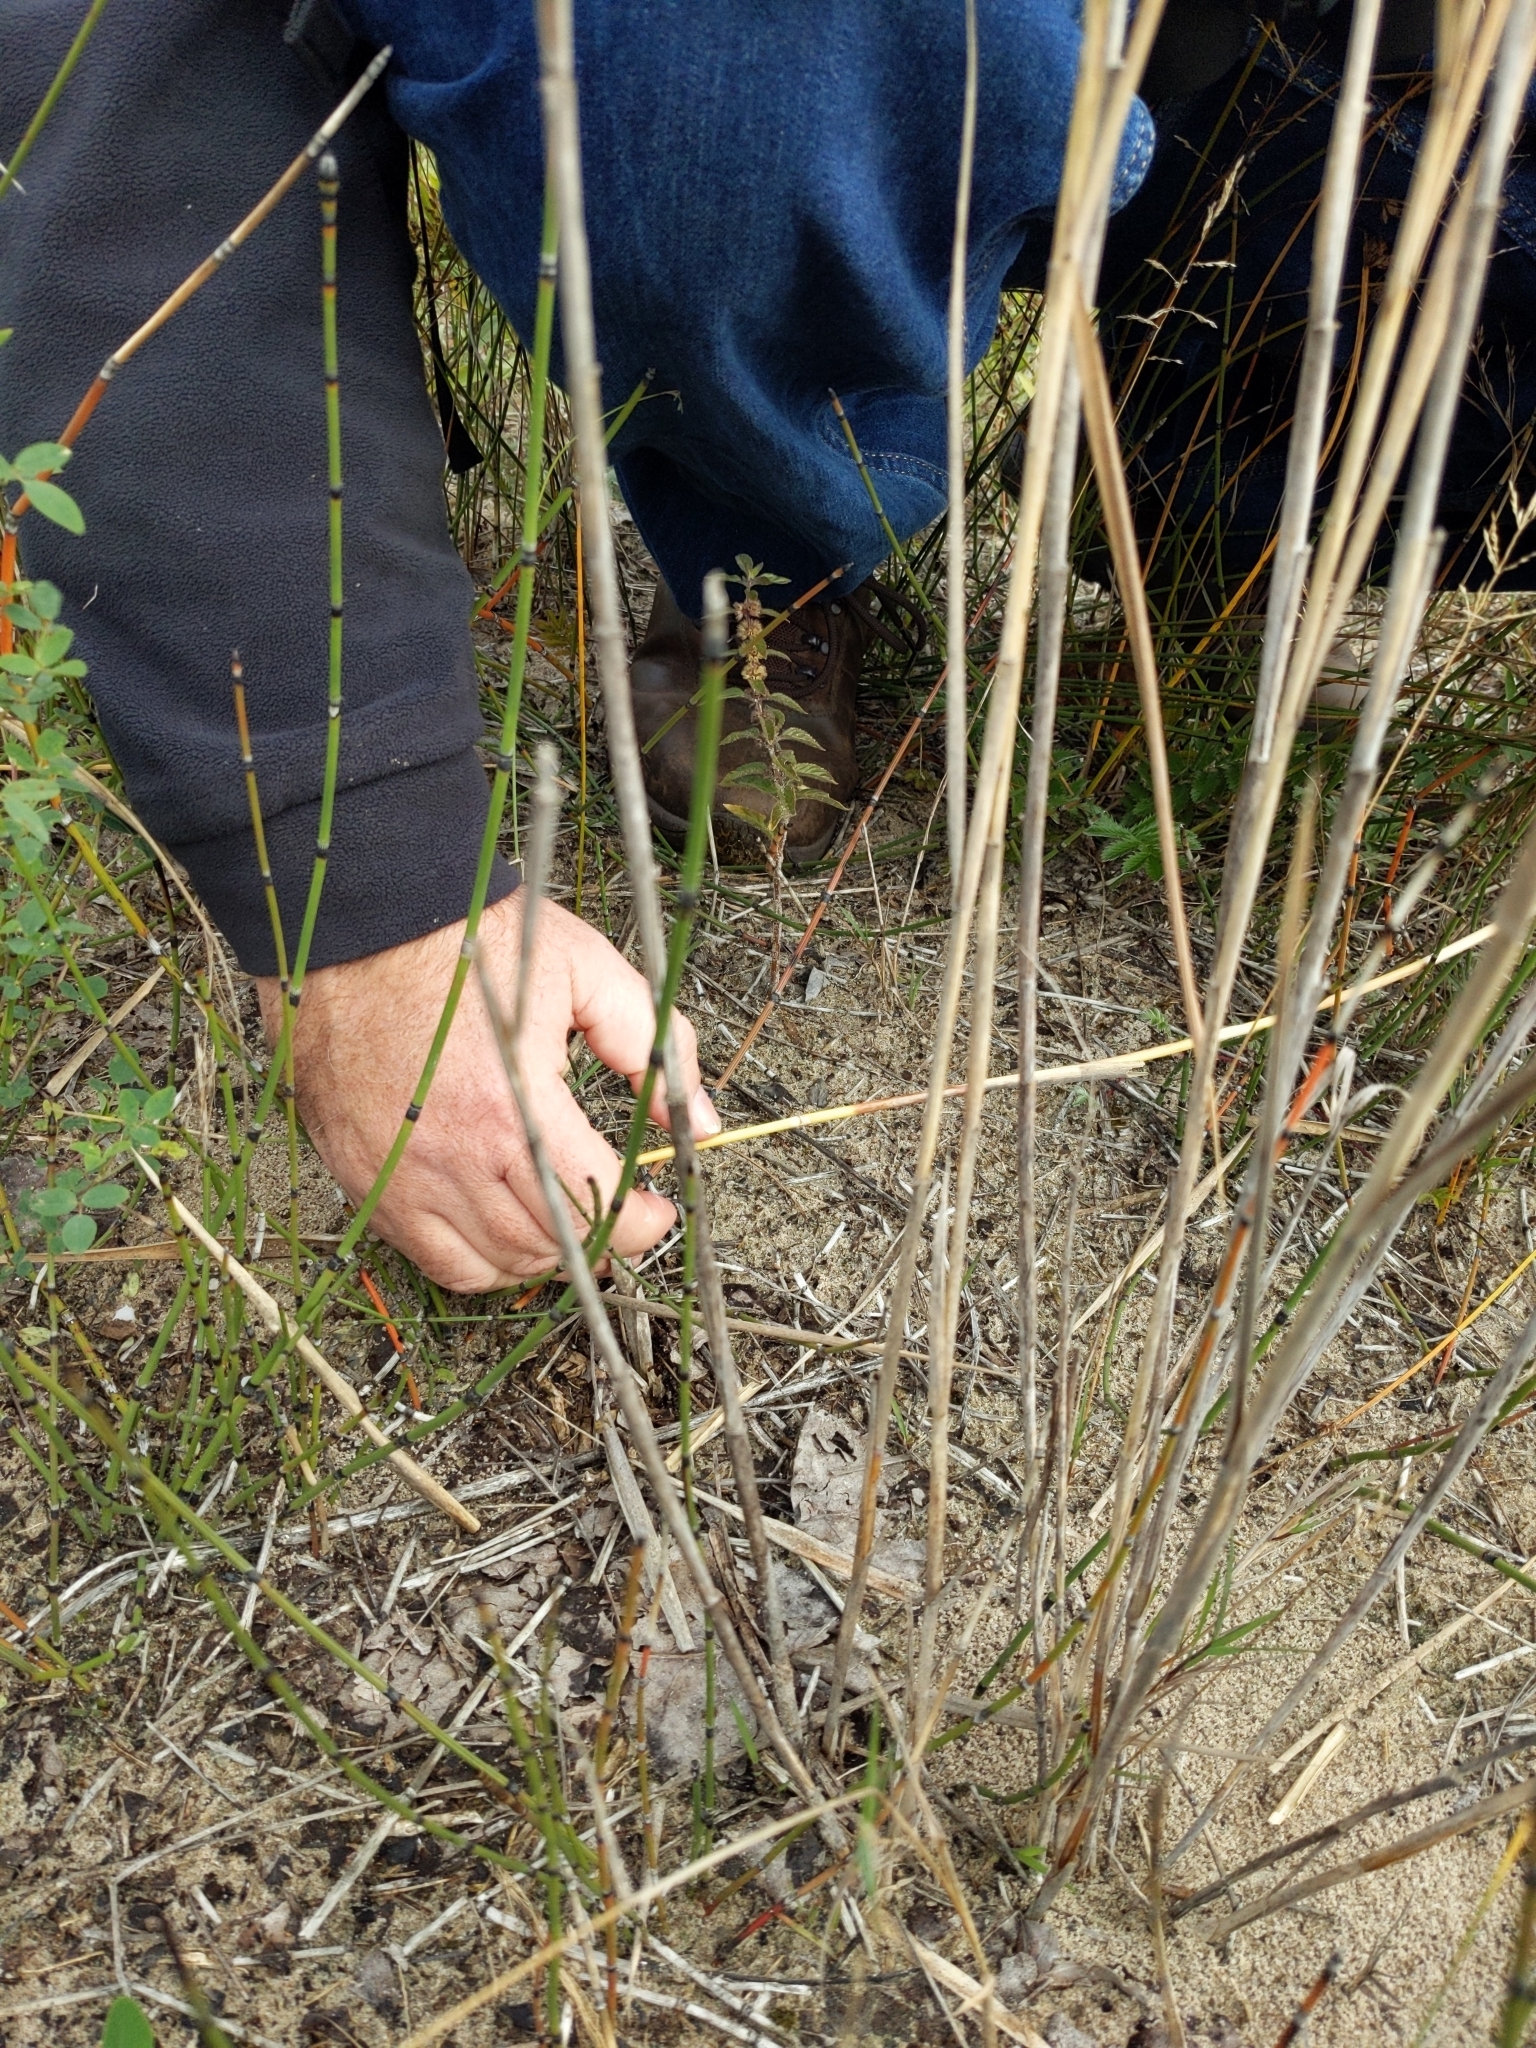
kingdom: Plantae
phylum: Tracheophyta
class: Liliopsida
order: Poales
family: Poaceae
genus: Phragmites
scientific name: Phragmites australis
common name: Common reed
